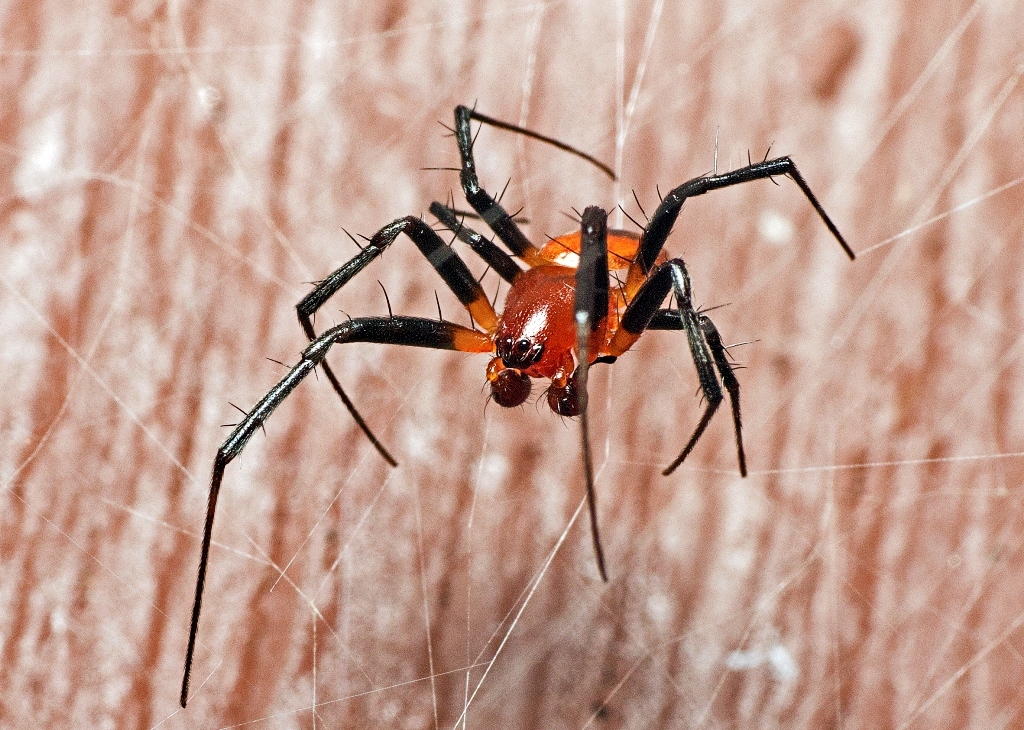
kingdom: Animalia
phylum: Arthropoda
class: Arachnida
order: Araneae
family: Araneidae
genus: Nephilengys
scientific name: Nephilengys malabarensis
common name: Asian hermit spider
